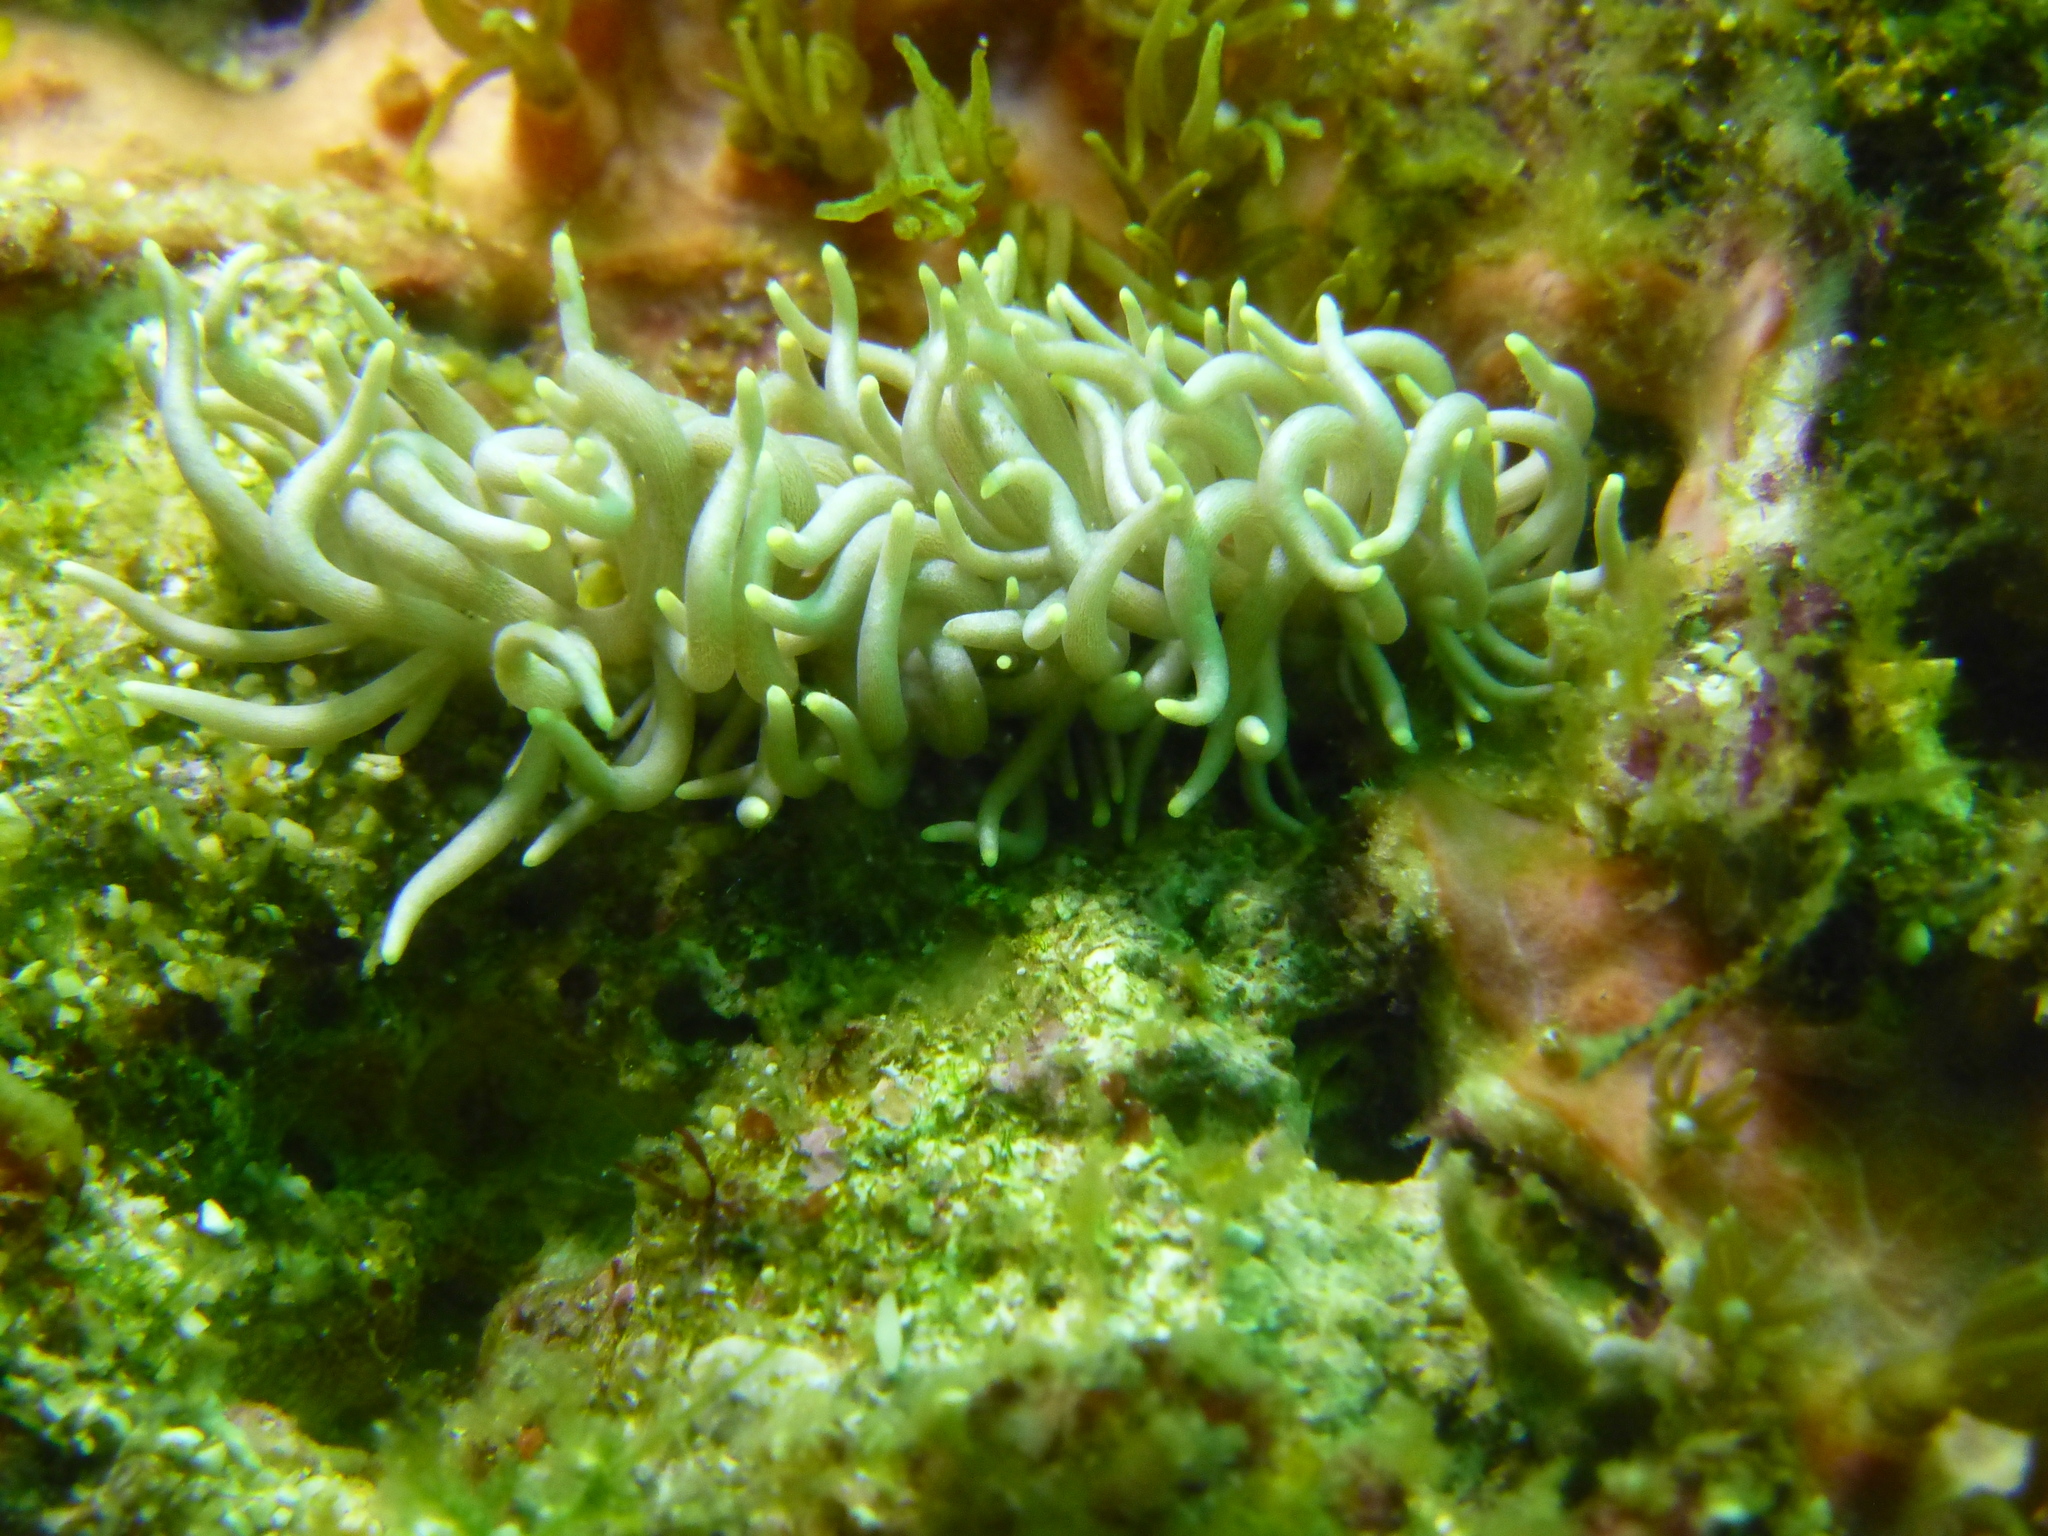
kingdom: Animalia
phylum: Mollusca
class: Gastropoda
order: Nudibranchia
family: Myrrhinidae
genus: Phyllodesmium
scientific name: Phyllodesmium briareum
